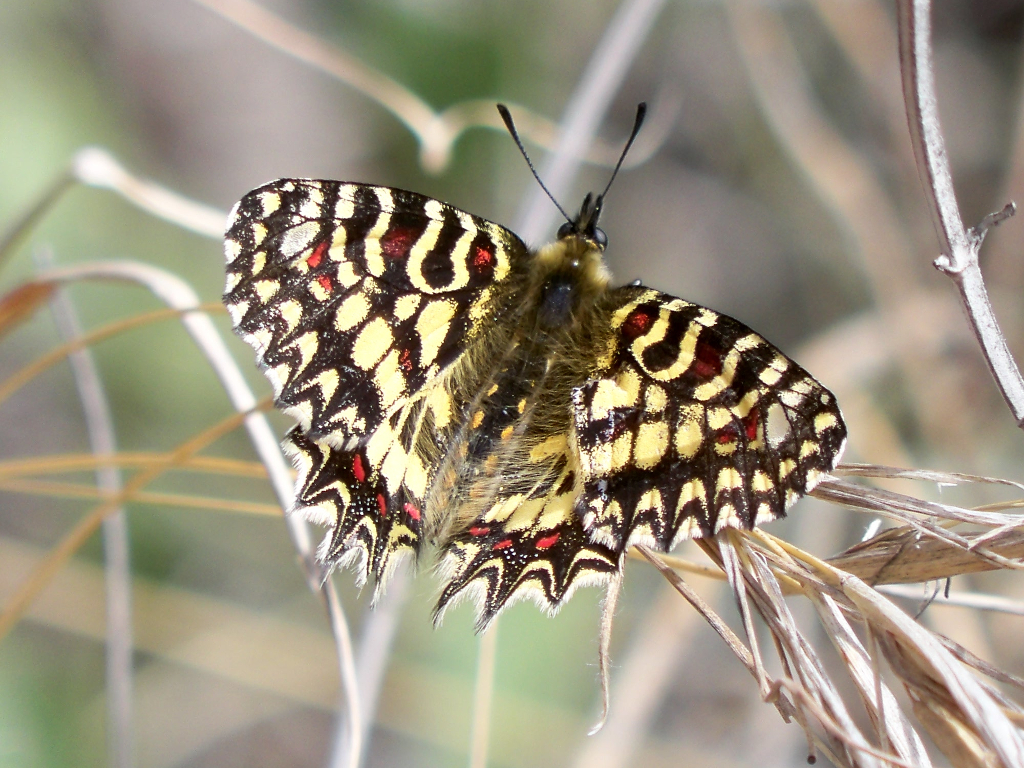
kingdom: Animalia
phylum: Arthropoda
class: Insecta
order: Lepidoptera
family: Papilionidae
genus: Zerynthia
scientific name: Zerynthia rumina
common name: Spanish festoon
